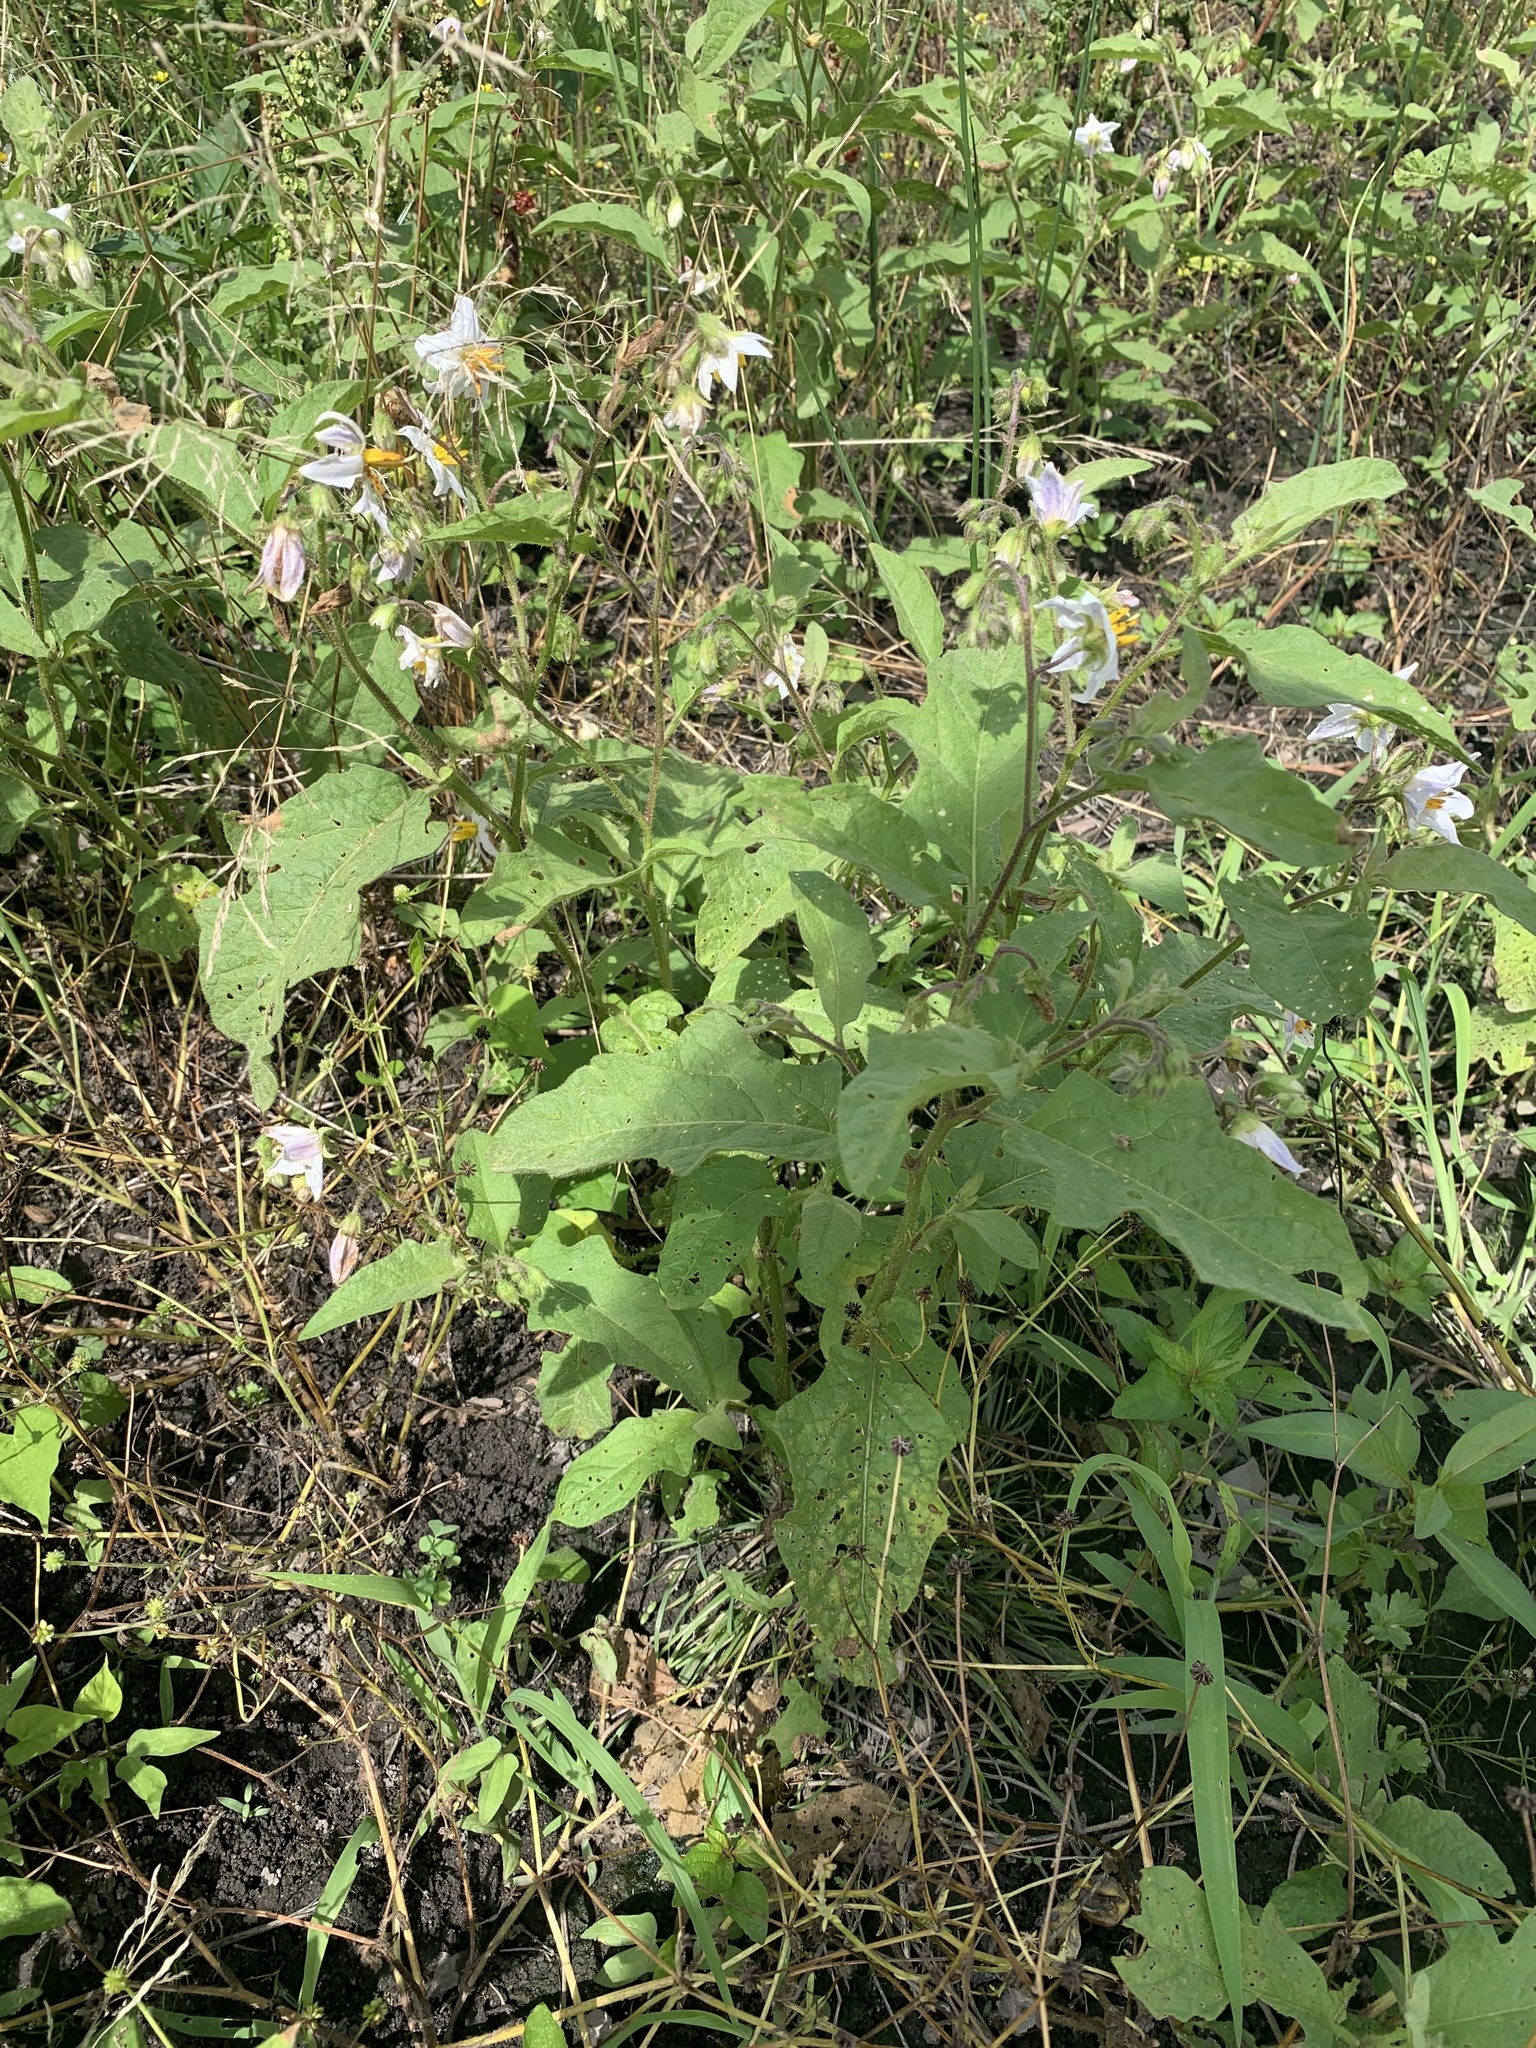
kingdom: Plantae
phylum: Tracheophyta
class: Magnoliopsida
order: Solanales
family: Solanaceae
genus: Solanum
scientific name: Solanum carolinense
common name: Horse-nettle
